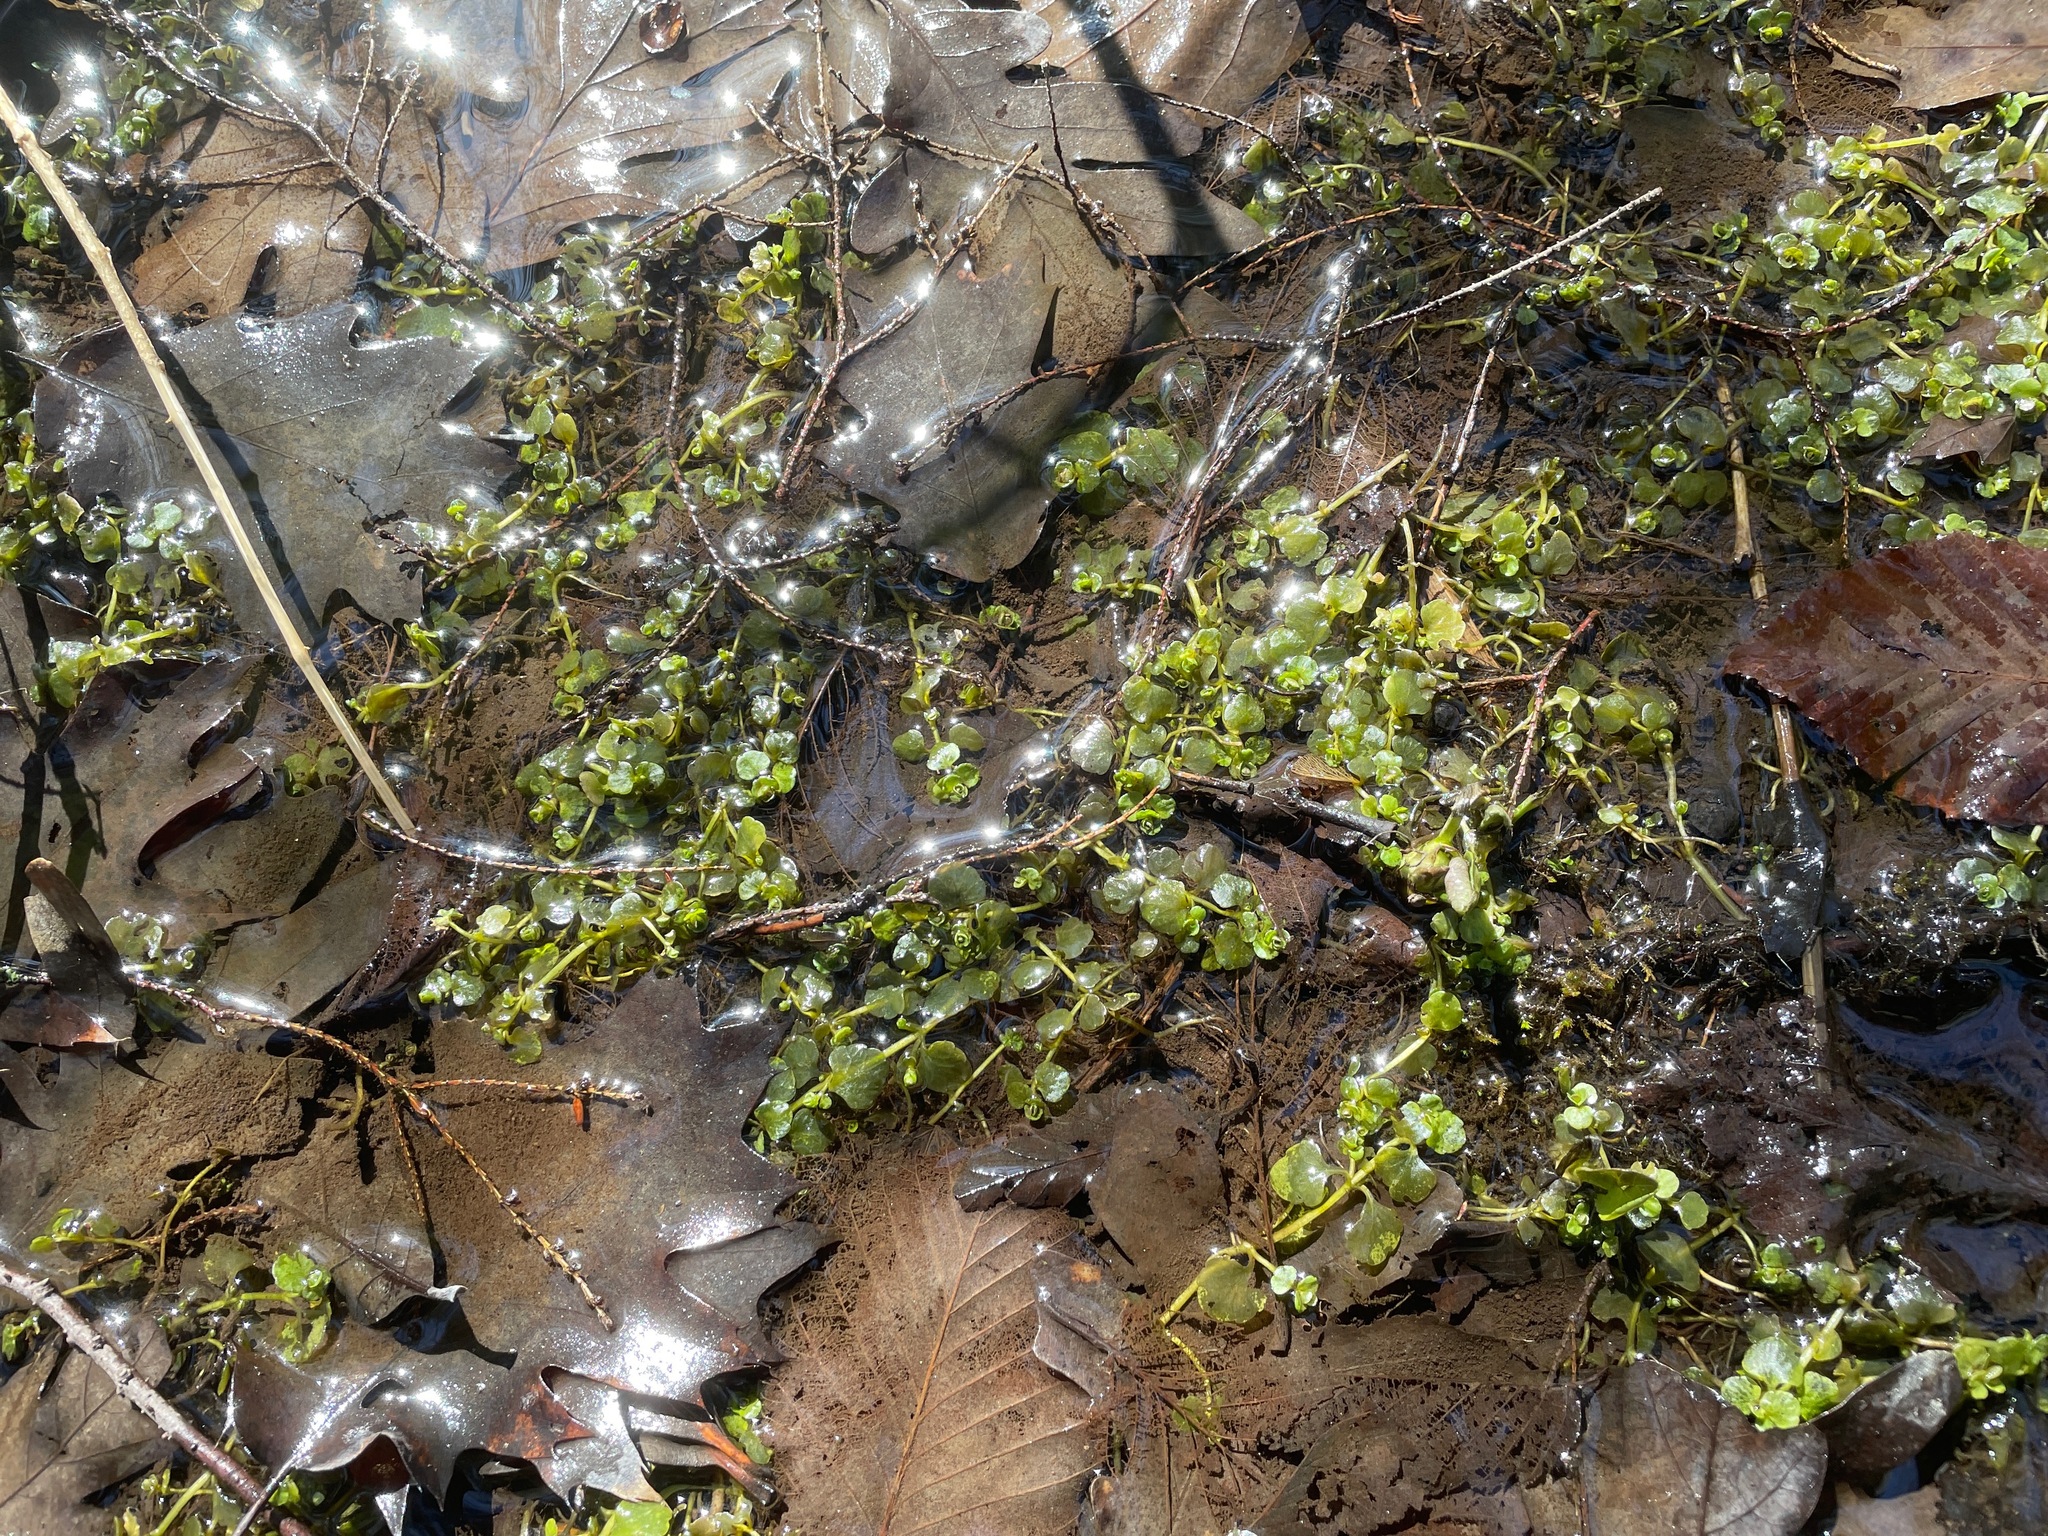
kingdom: Plantae
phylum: Tracheophyta
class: Magnoliopsida
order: Saxifragales
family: Saxifragaceae
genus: Chrysosplenium
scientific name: Chrysosplenium americanum
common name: American golden-saxifrage
